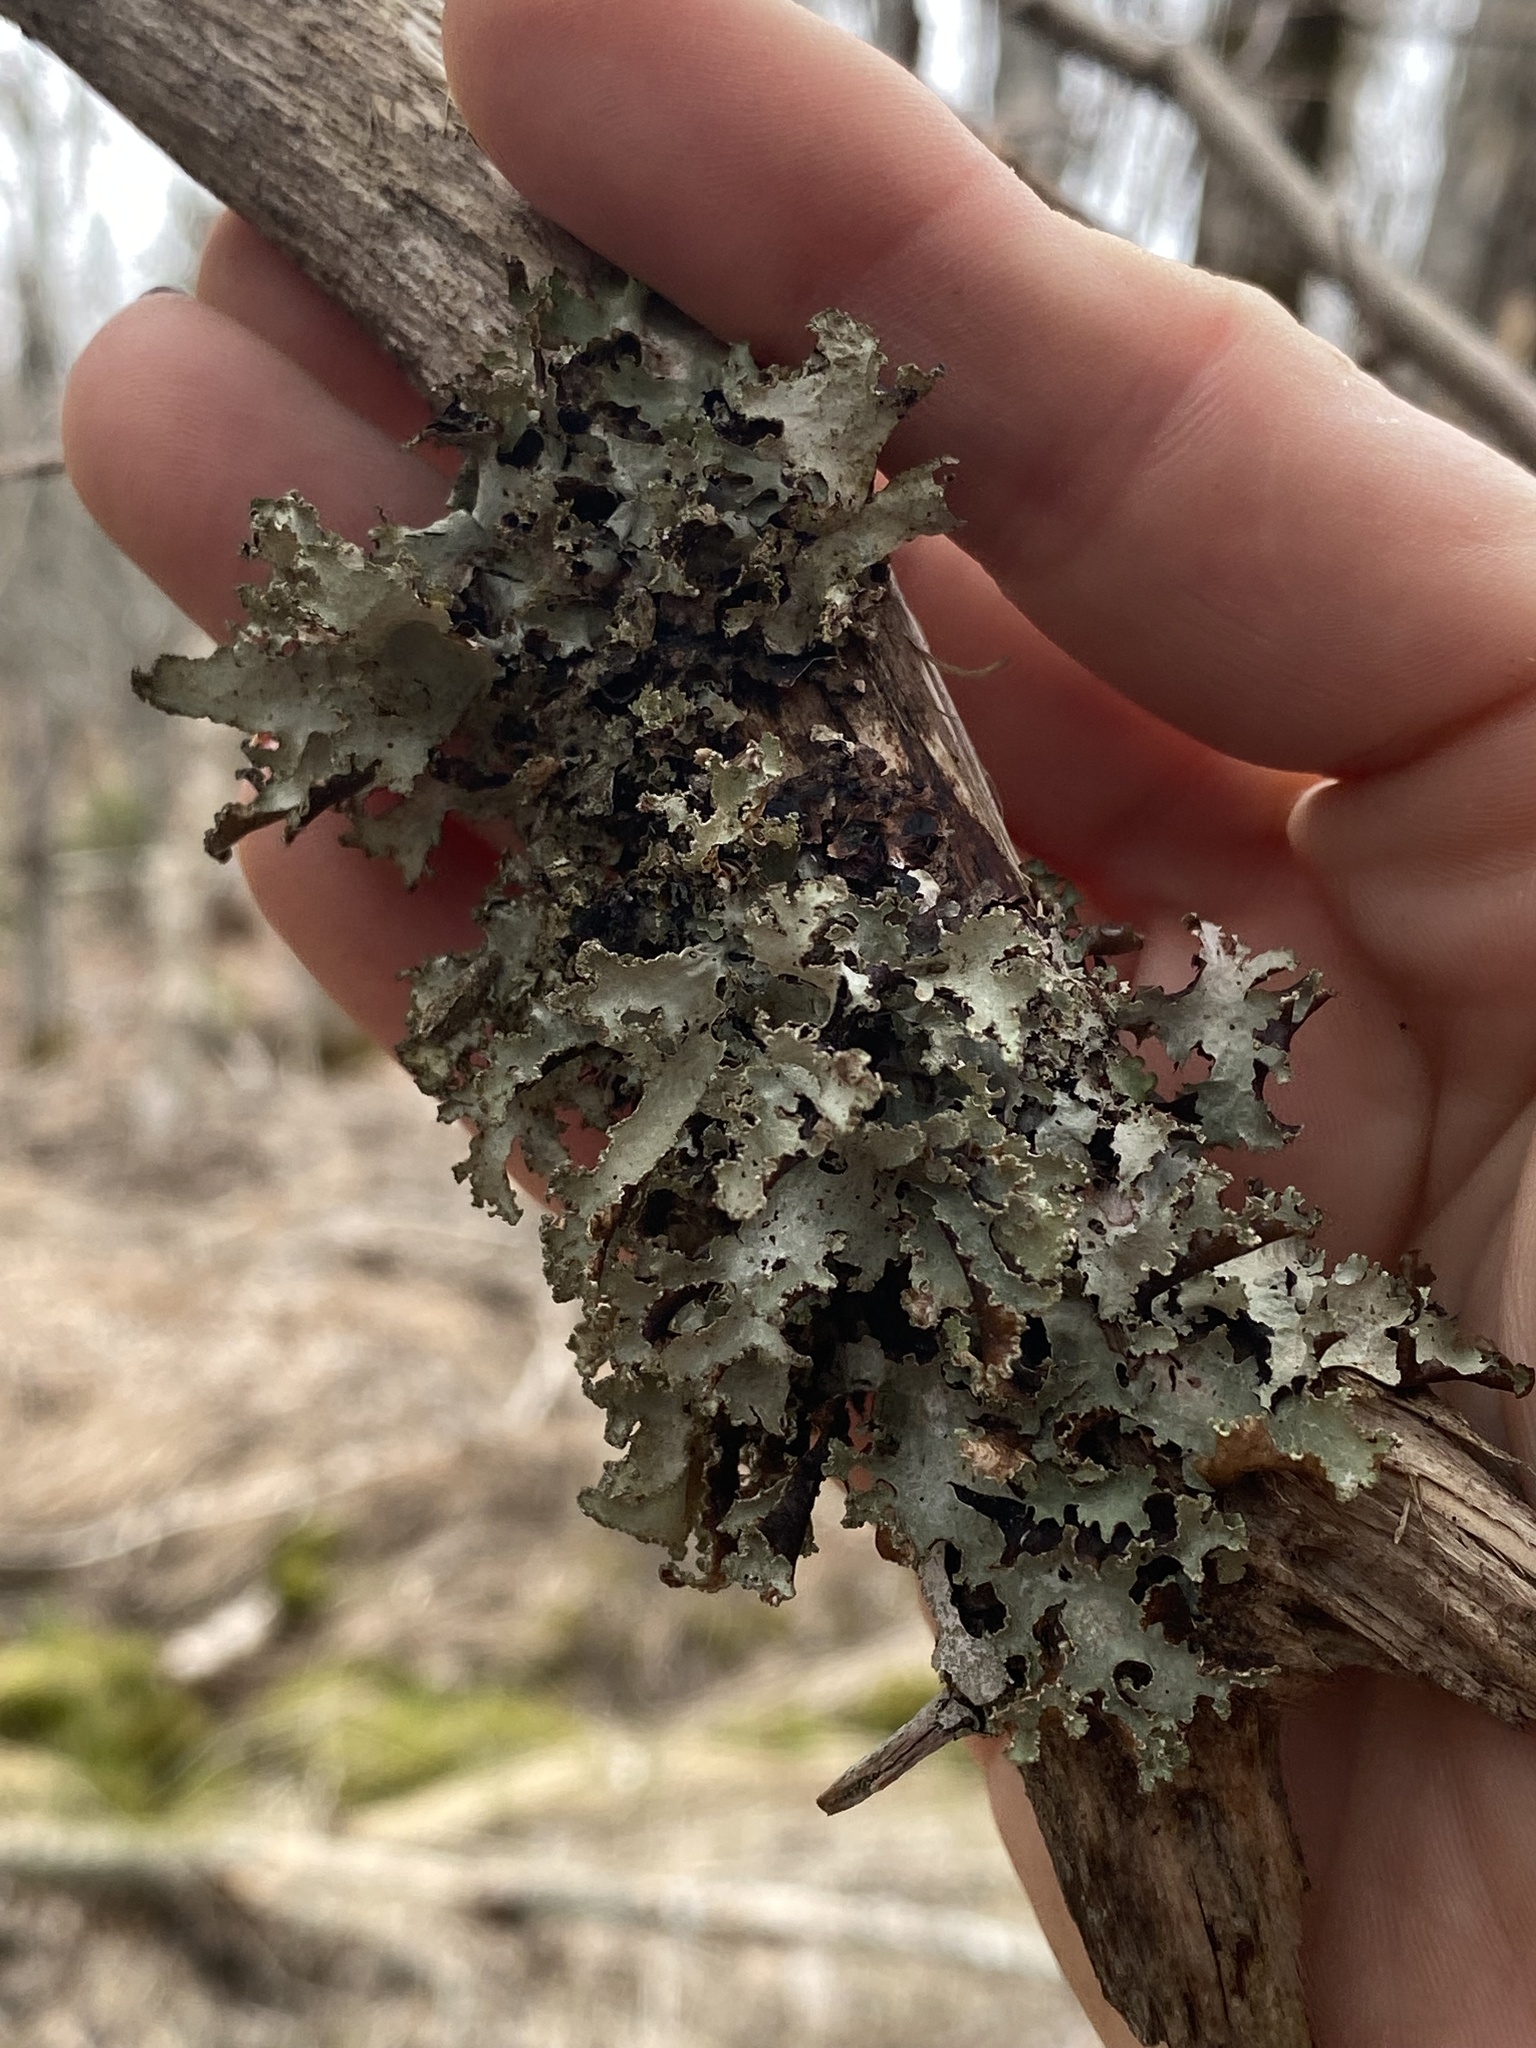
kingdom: Fungi
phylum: Ascomycota
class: Lecanoromycetes
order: Lecanorales
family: Parmeliaceae
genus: Platismatia
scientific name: Platismatia glauca
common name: Varied rag lichen
